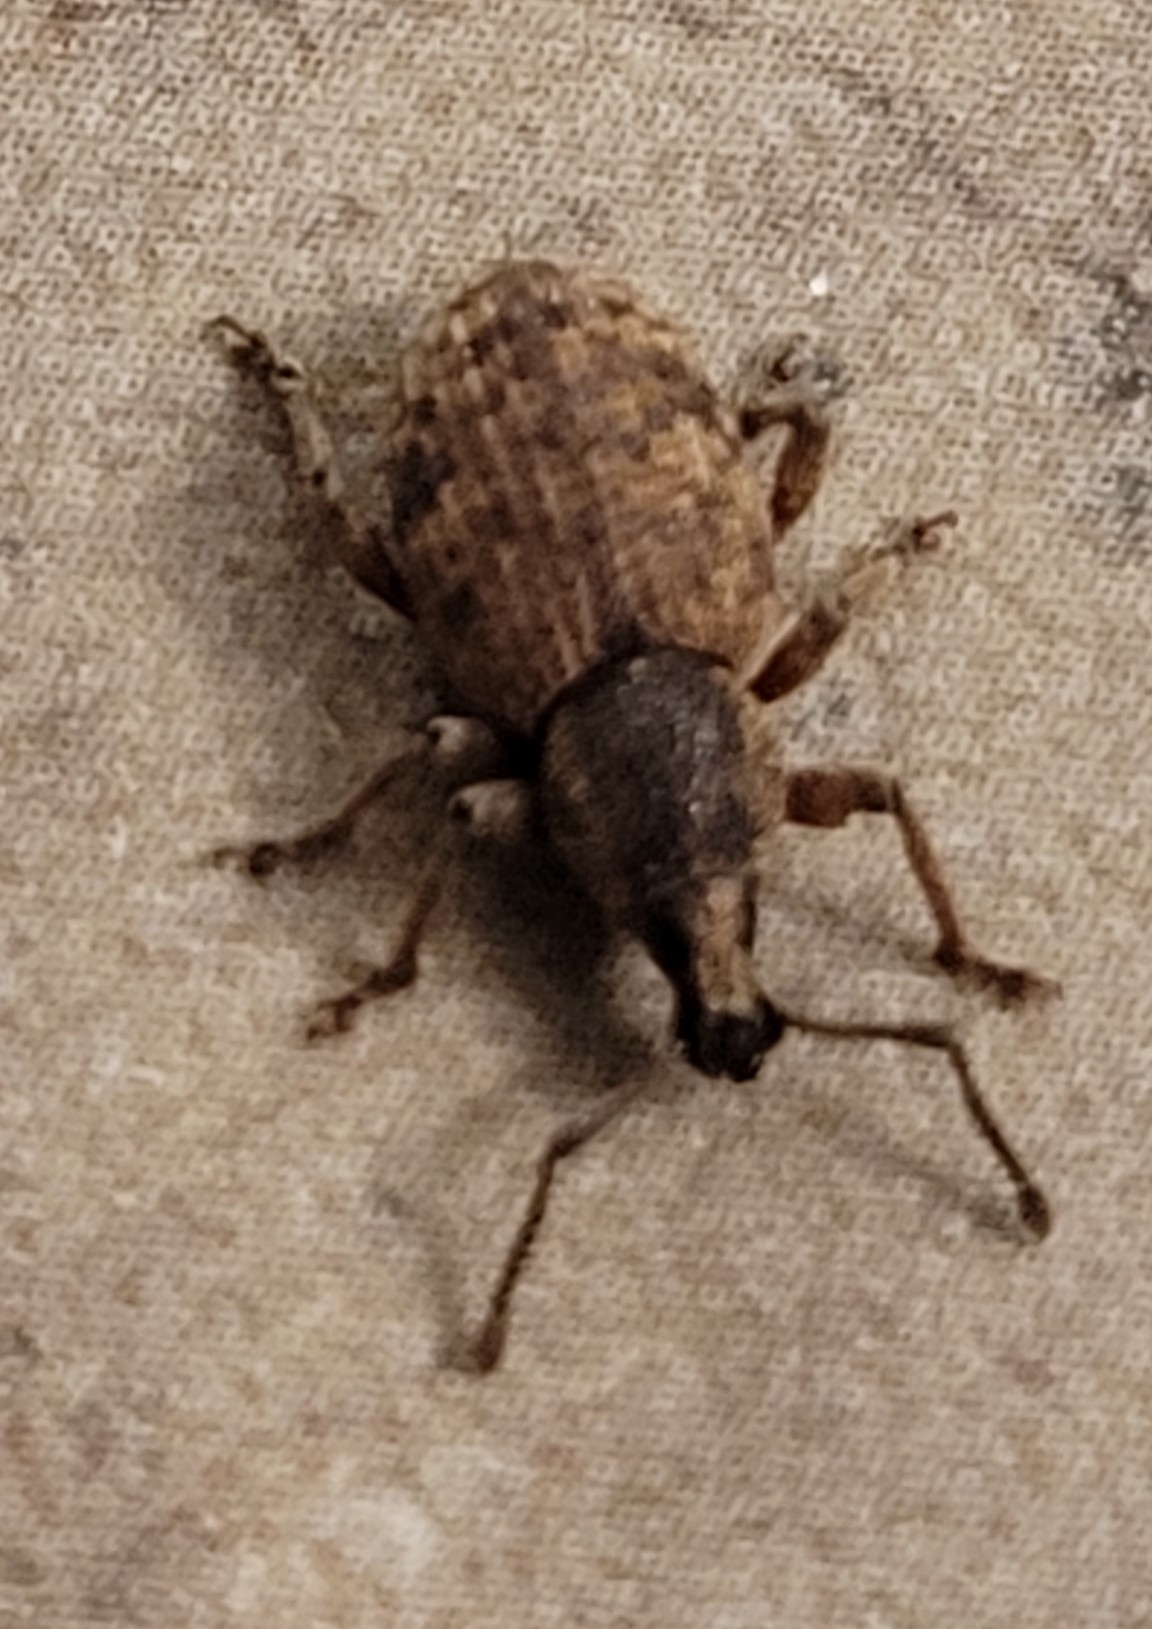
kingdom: Animalia
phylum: Arthropoda
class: Insecta
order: Coleoptera
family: Curculionidae
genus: Otiorhynchus
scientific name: Otiorhynchus singularis
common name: Clay-coloured weevil
